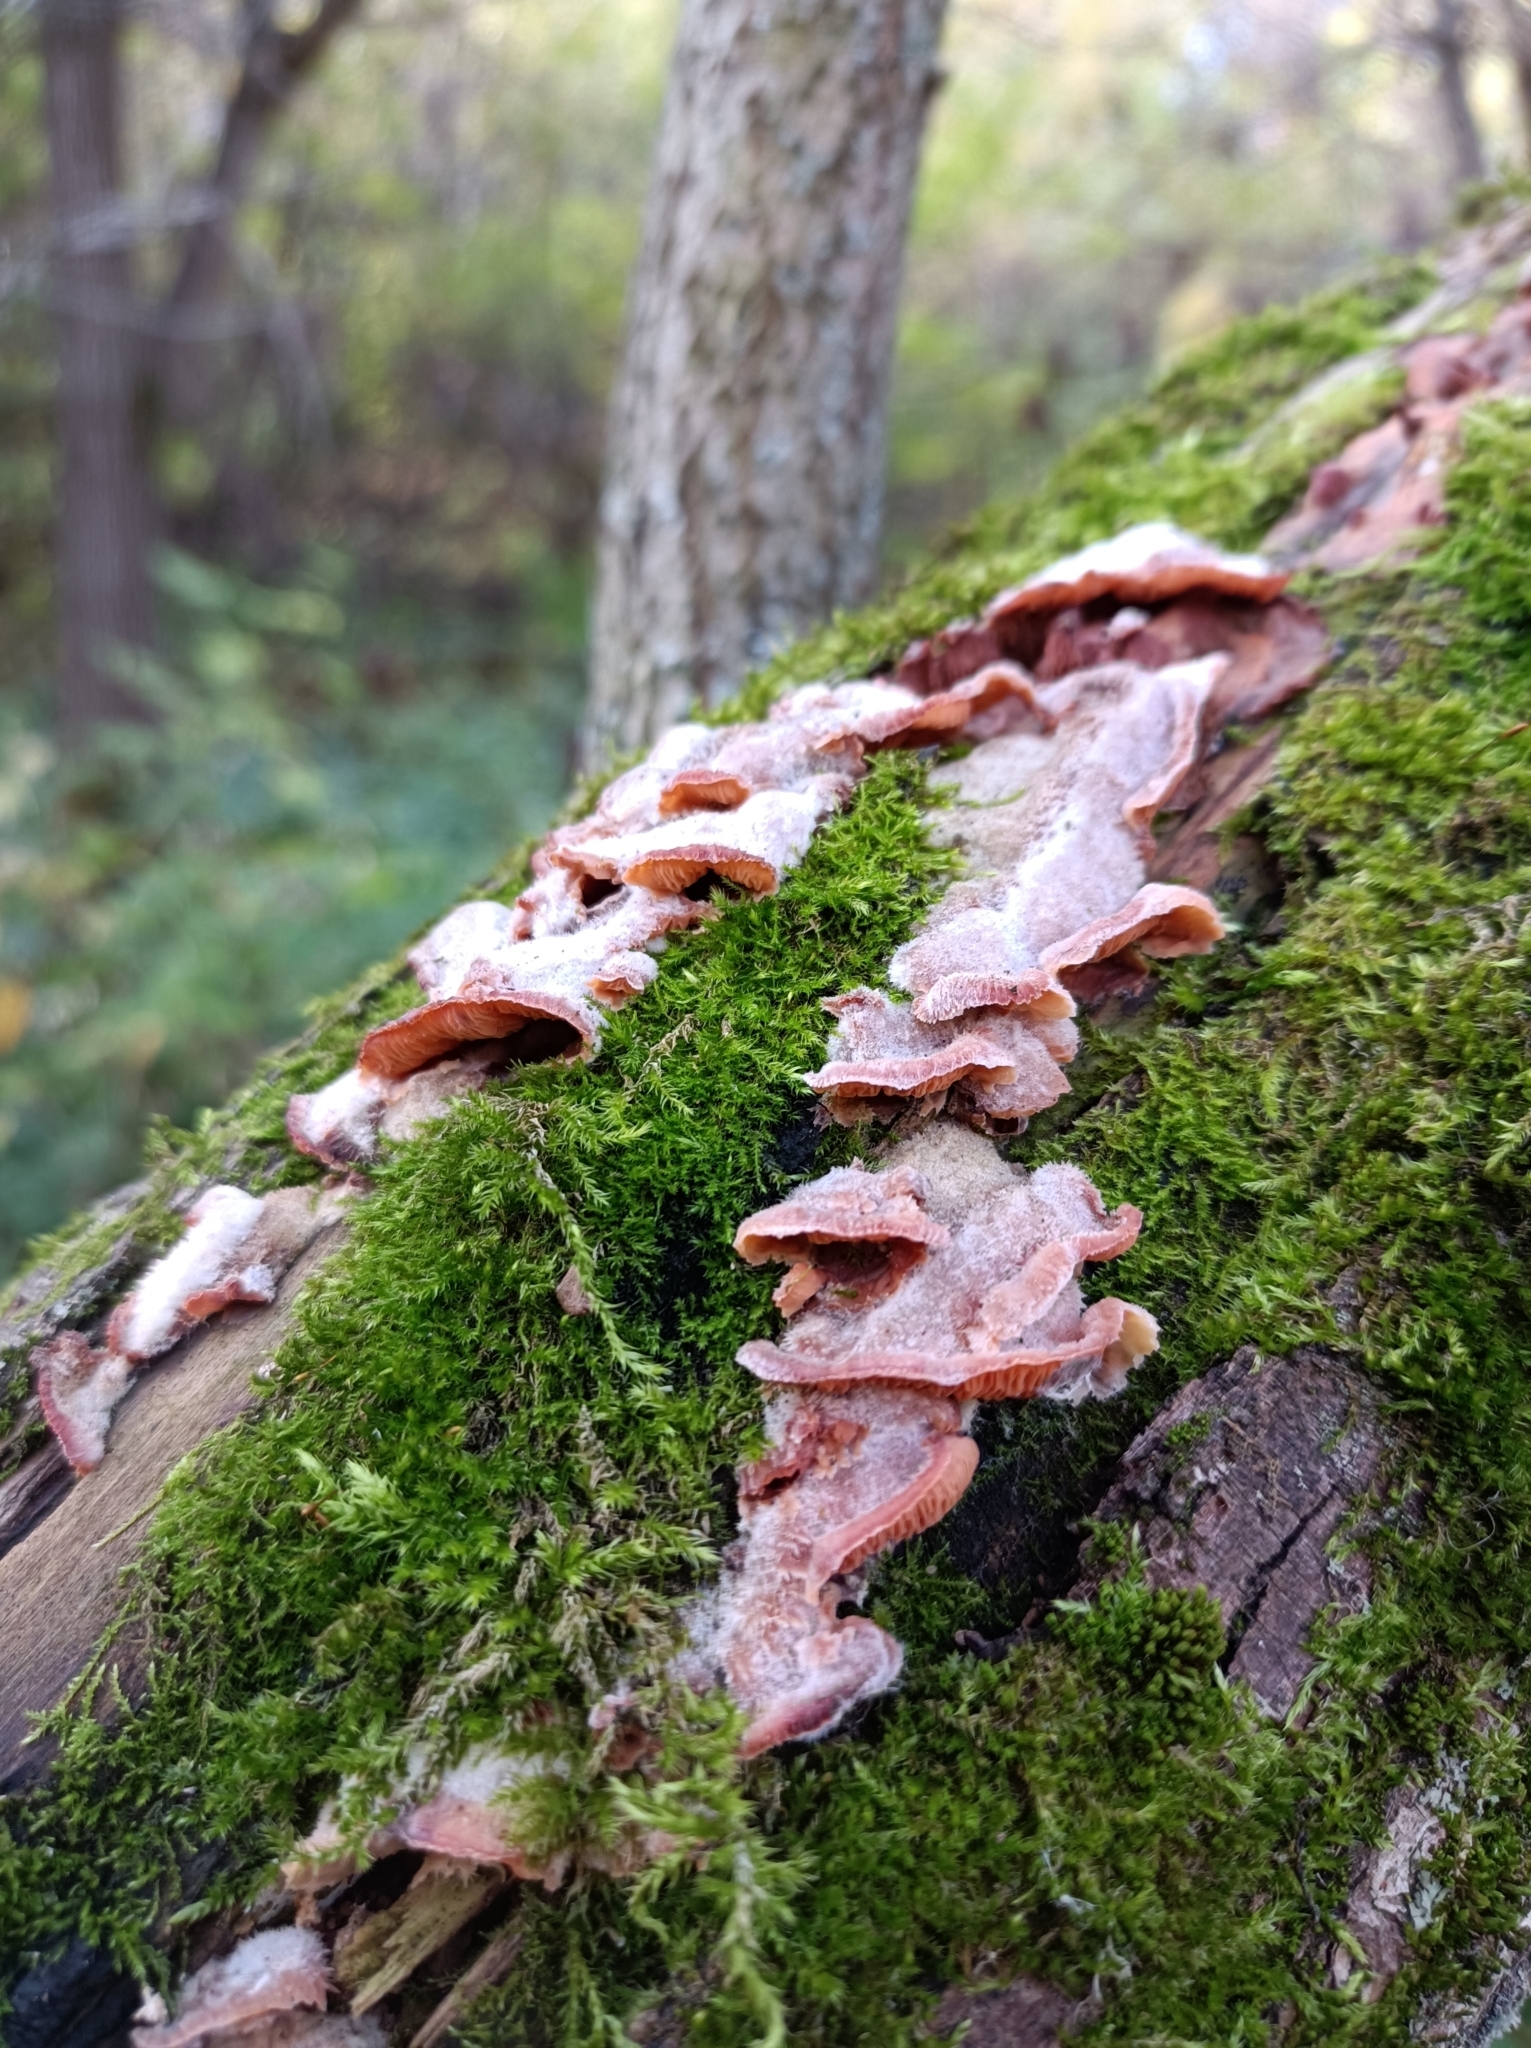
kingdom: Fungi
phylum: Basidiomycota
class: Agaricomycetes
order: Polyporales
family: Meruliaceae
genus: Phlebia
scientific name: Phlebia tremellosa
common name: Jelly rot
